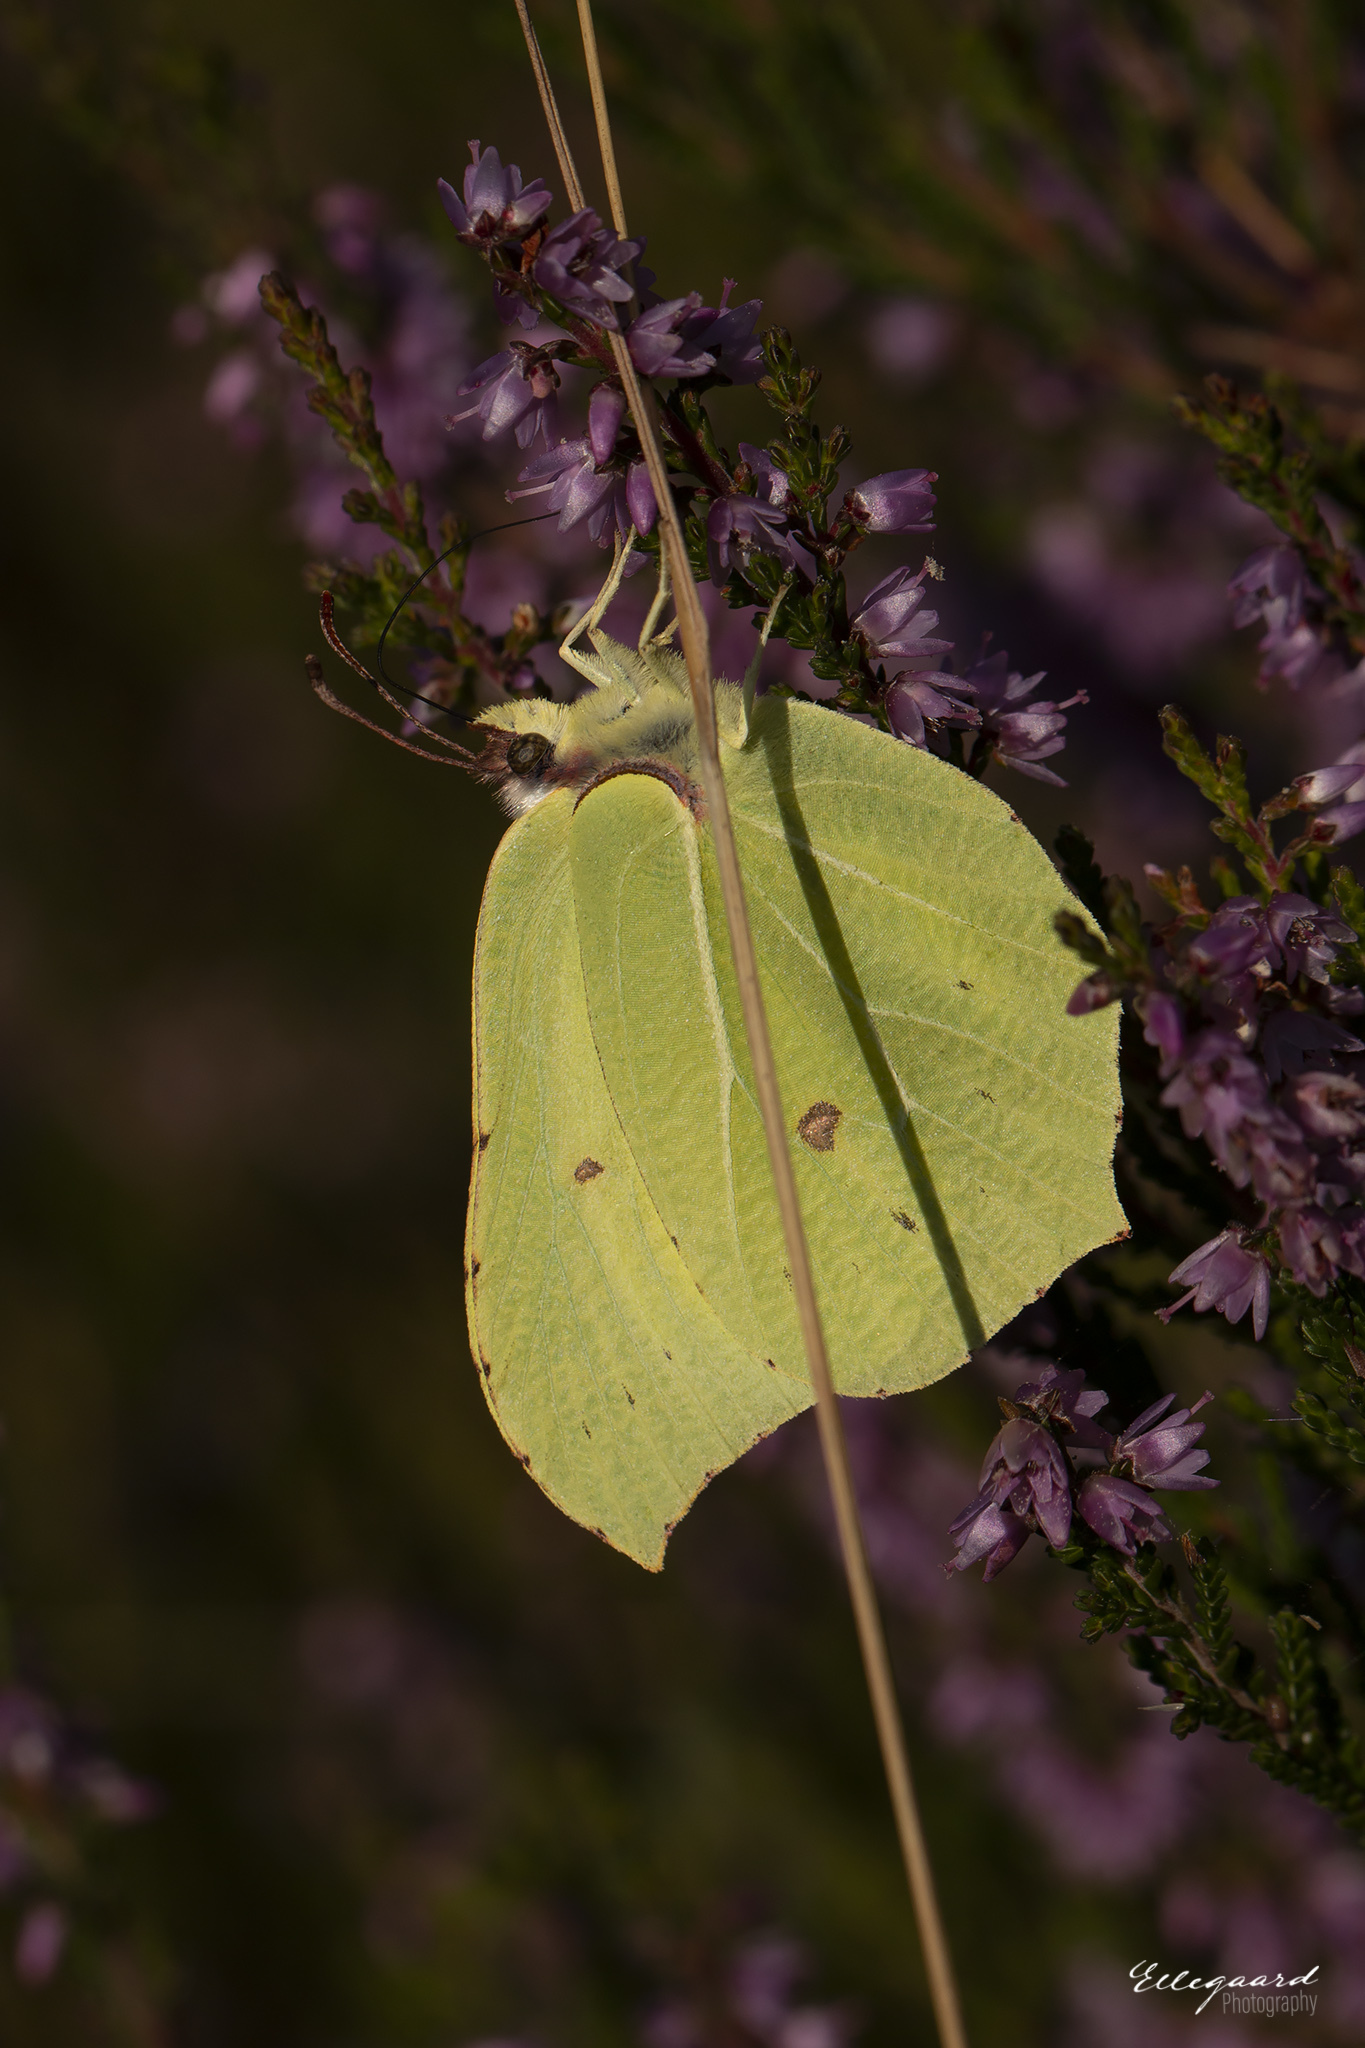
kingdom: Animalia
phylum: Arthropoda
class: Insecta
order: Lepidoptera
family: Pieridae
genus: Gonepteryx
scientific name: Gonepteryx rhamni
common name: Brimstone
